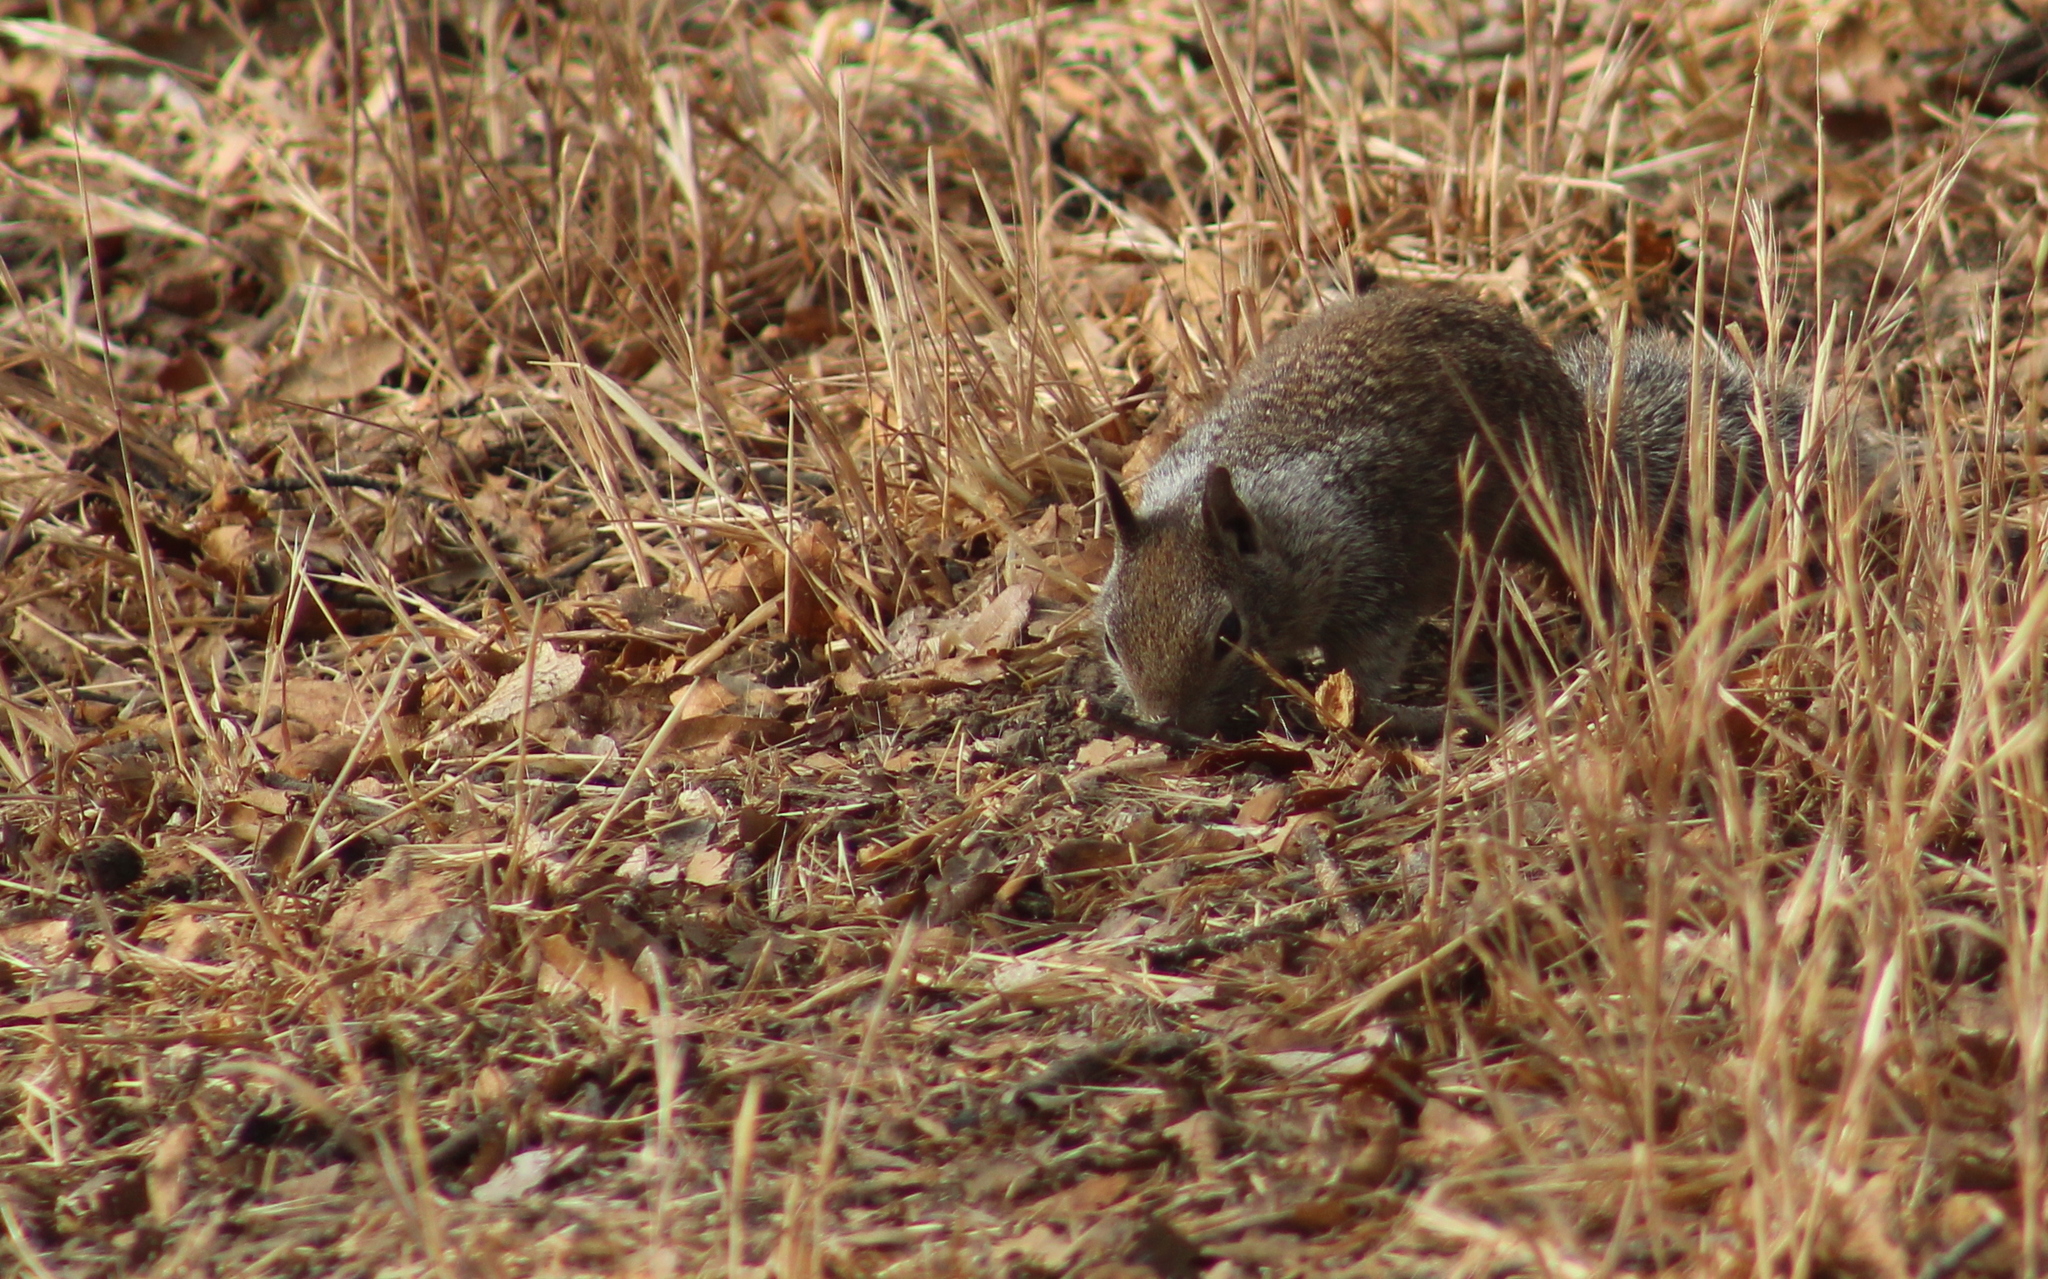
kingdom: Animalia
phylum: Chordata
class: Mammalia
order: Rodentia
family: Sciuridae
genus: Otospermophilus
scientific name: Otospermophilus beecheyi
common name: California ground squirrel
